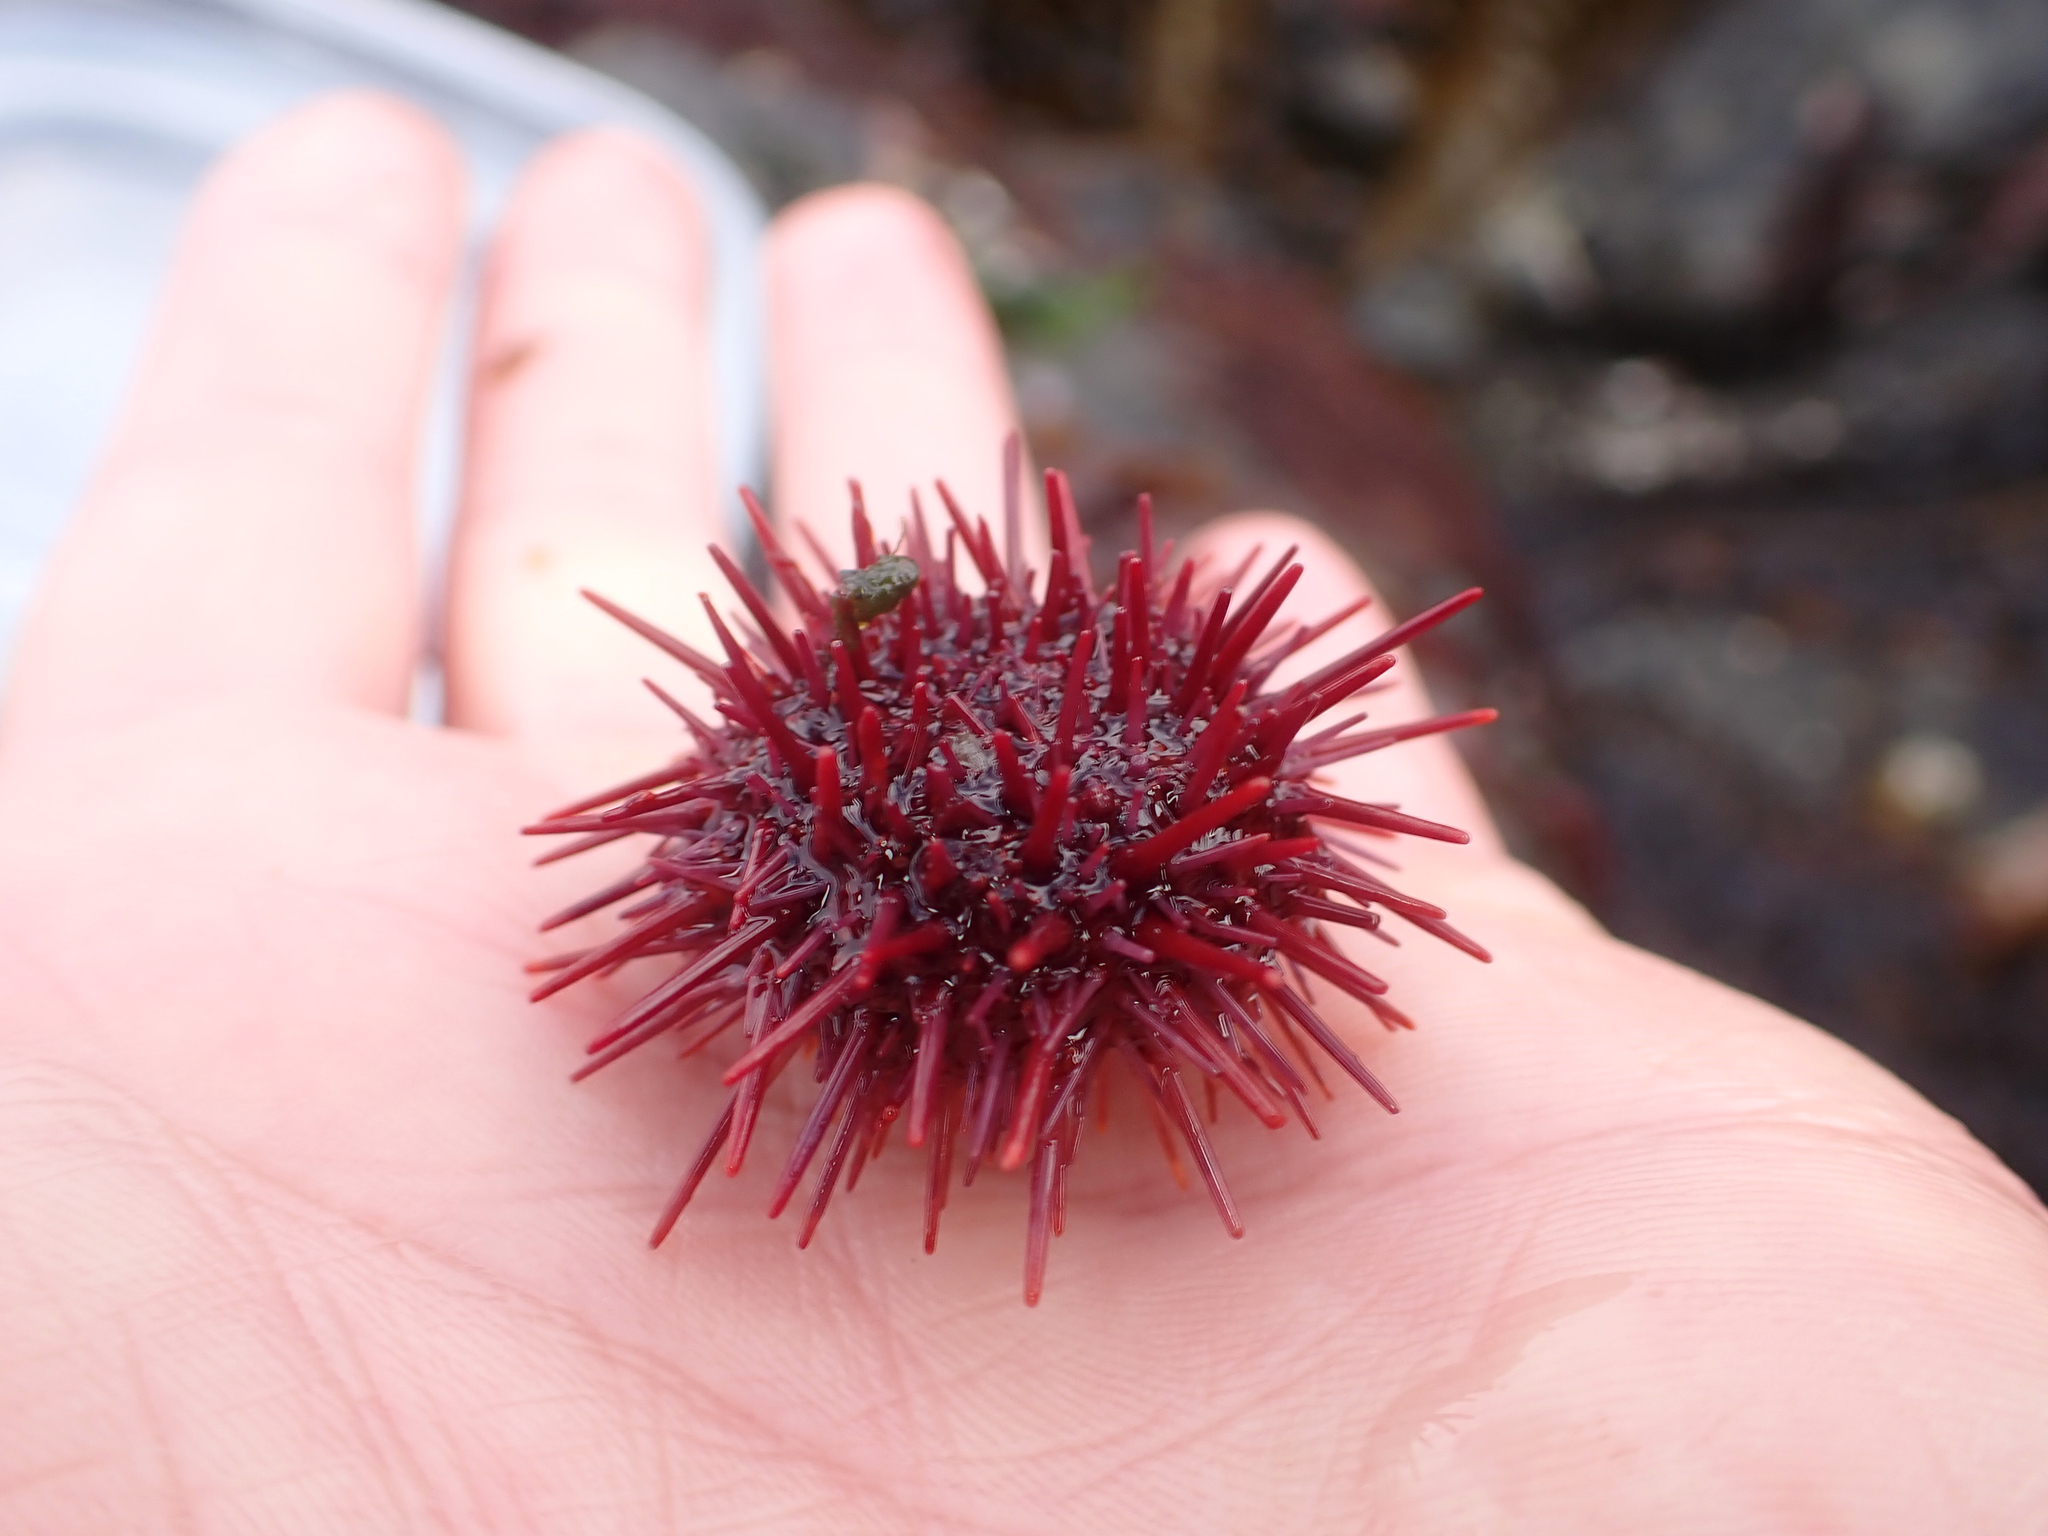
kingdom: Animalia
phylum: Echinodermata
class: Echinoidea
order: Camarodonta
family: Strongylocentrotidae
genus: Mesocentrotus
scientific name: Mesocentrotus franciscanus
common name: Red sea urchin
